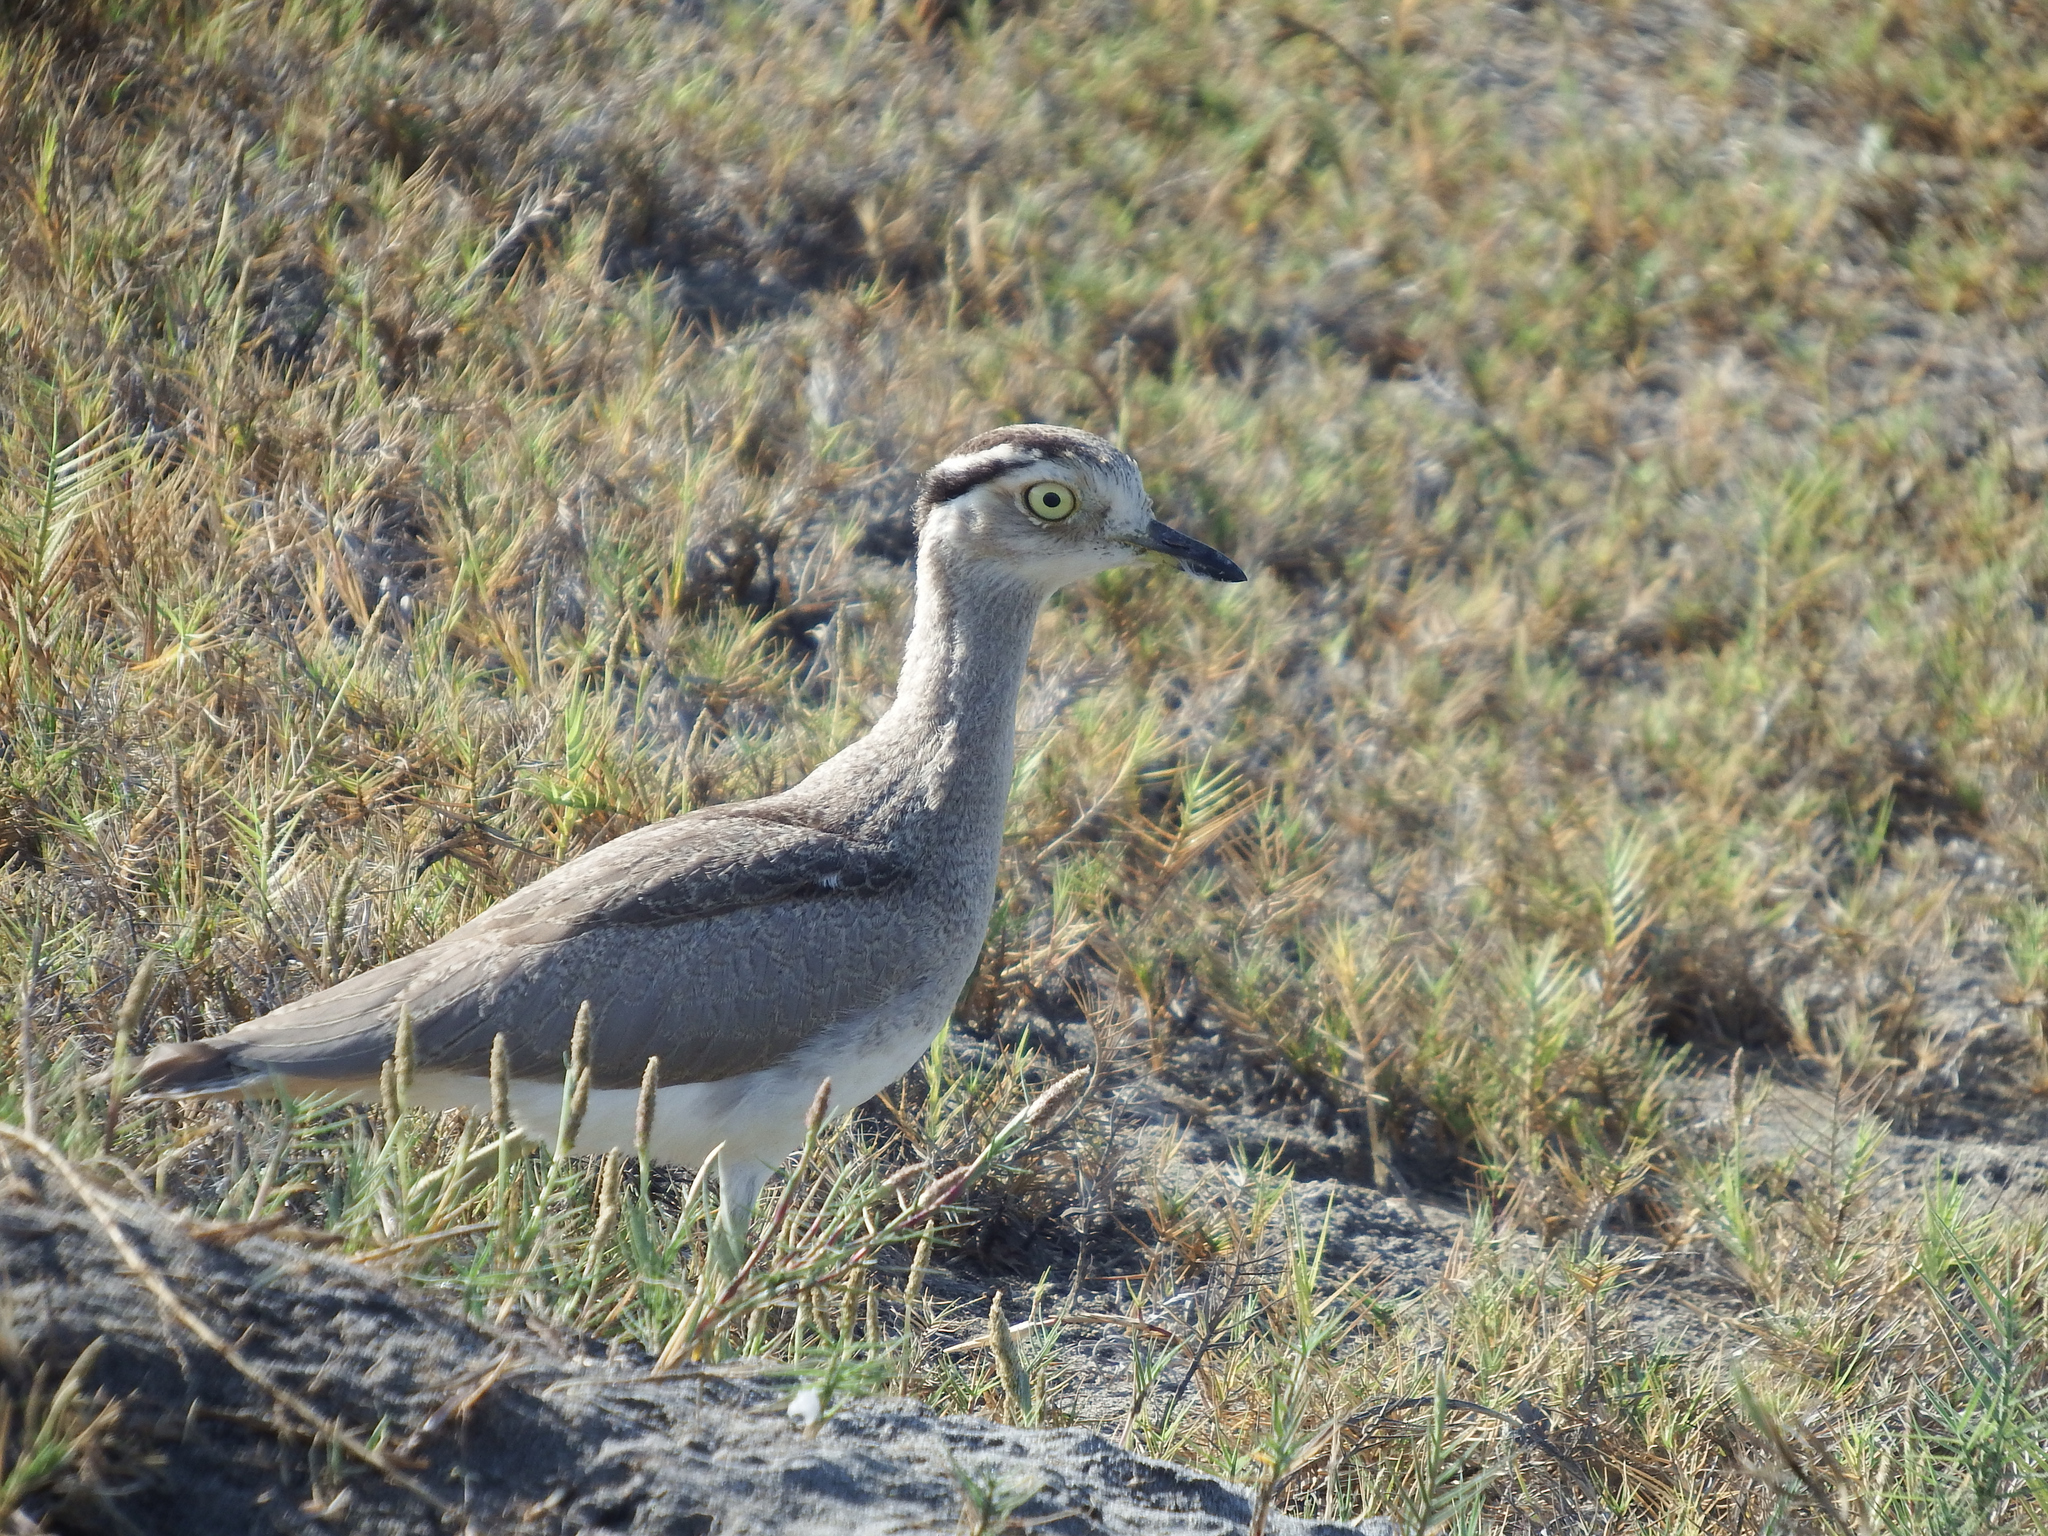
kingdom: Animalia
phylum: Chordata
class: Aves
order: Charadriiformes
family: Burhinidae
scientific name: Burhinidae
